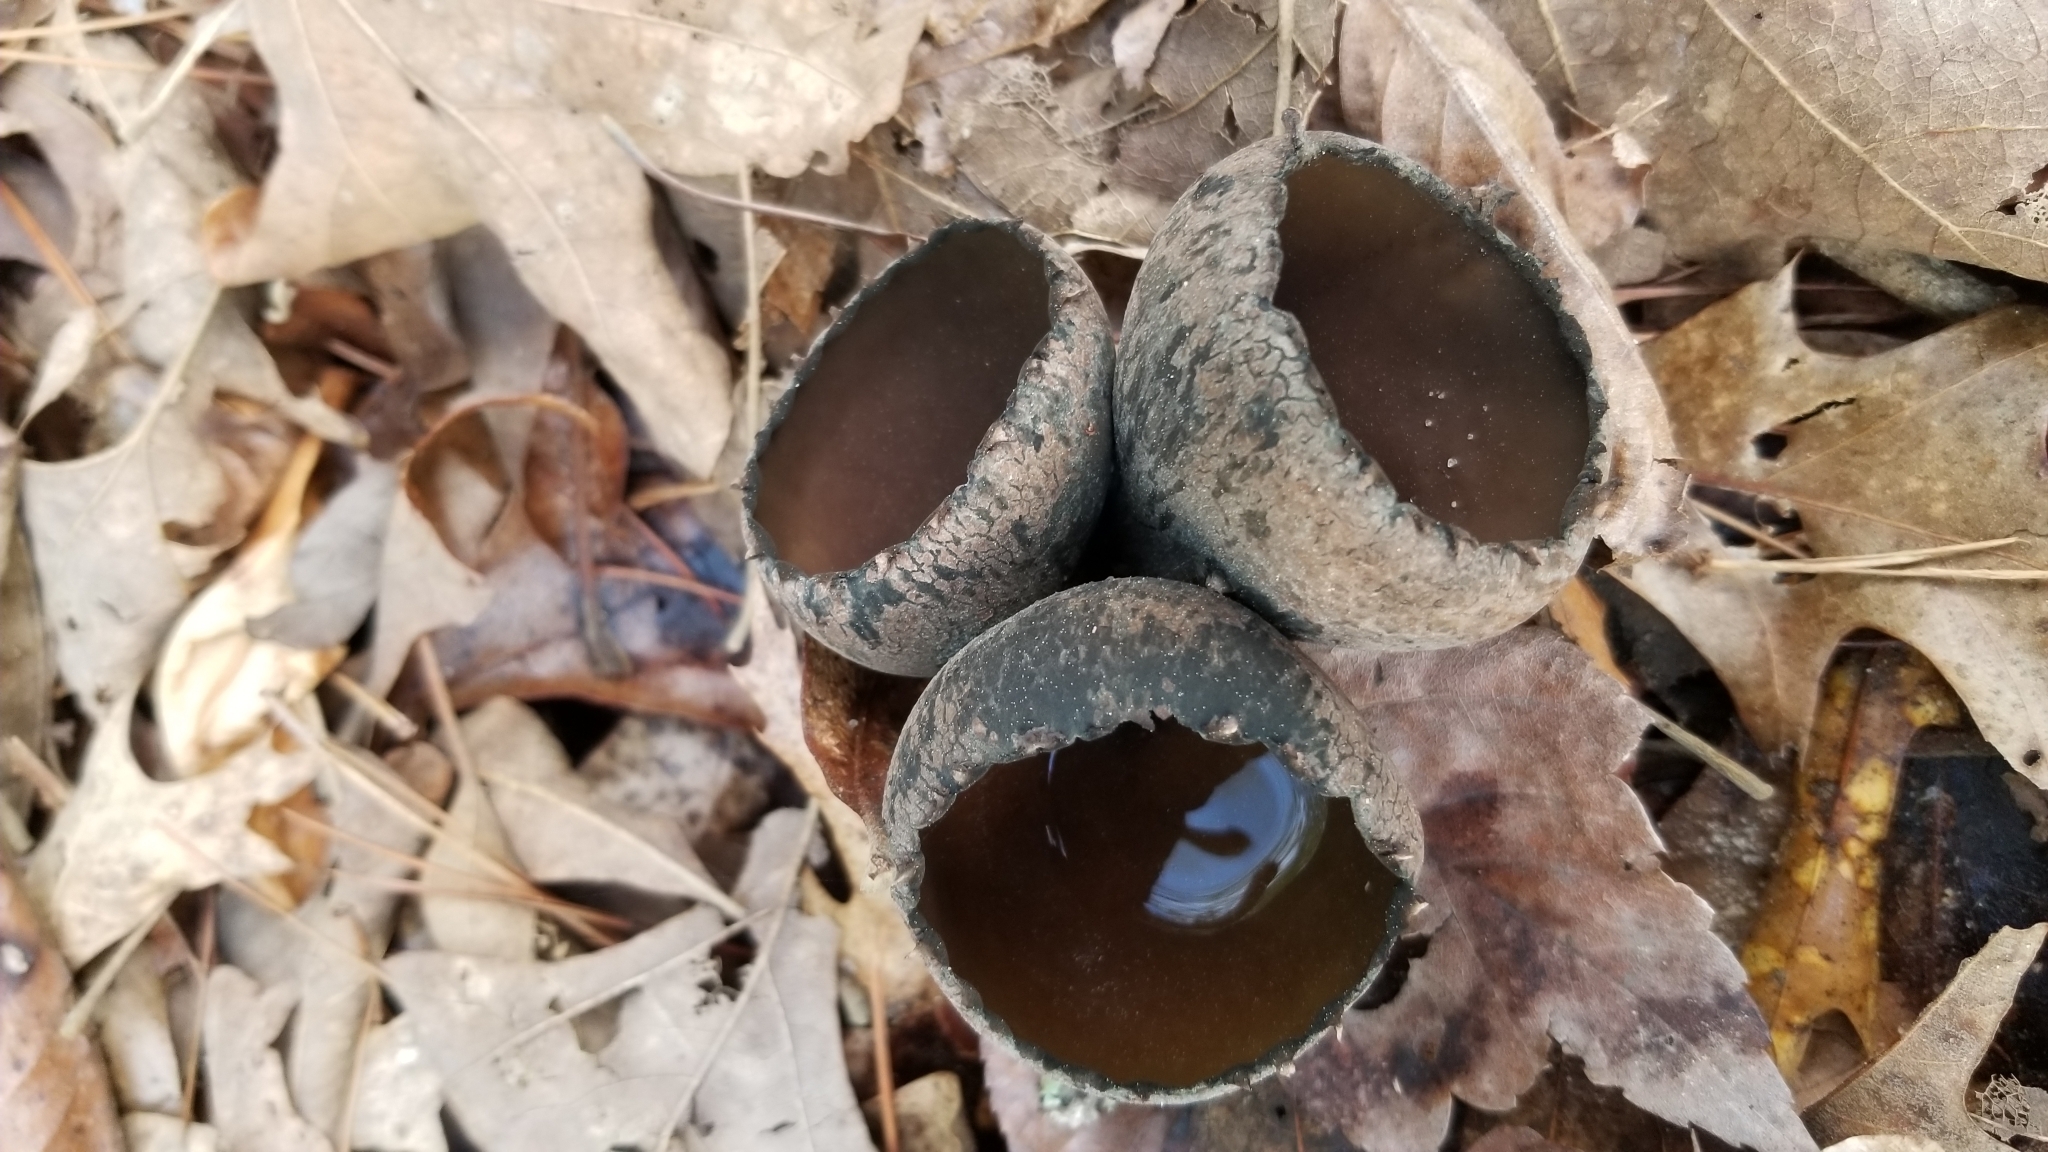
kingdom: Fungi
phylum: Ascomycota
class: Pezizomycetes
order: Pezizales
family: Sarcosomataceae
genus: Urnula
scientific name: Urnula craterium
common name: Devil's urn
